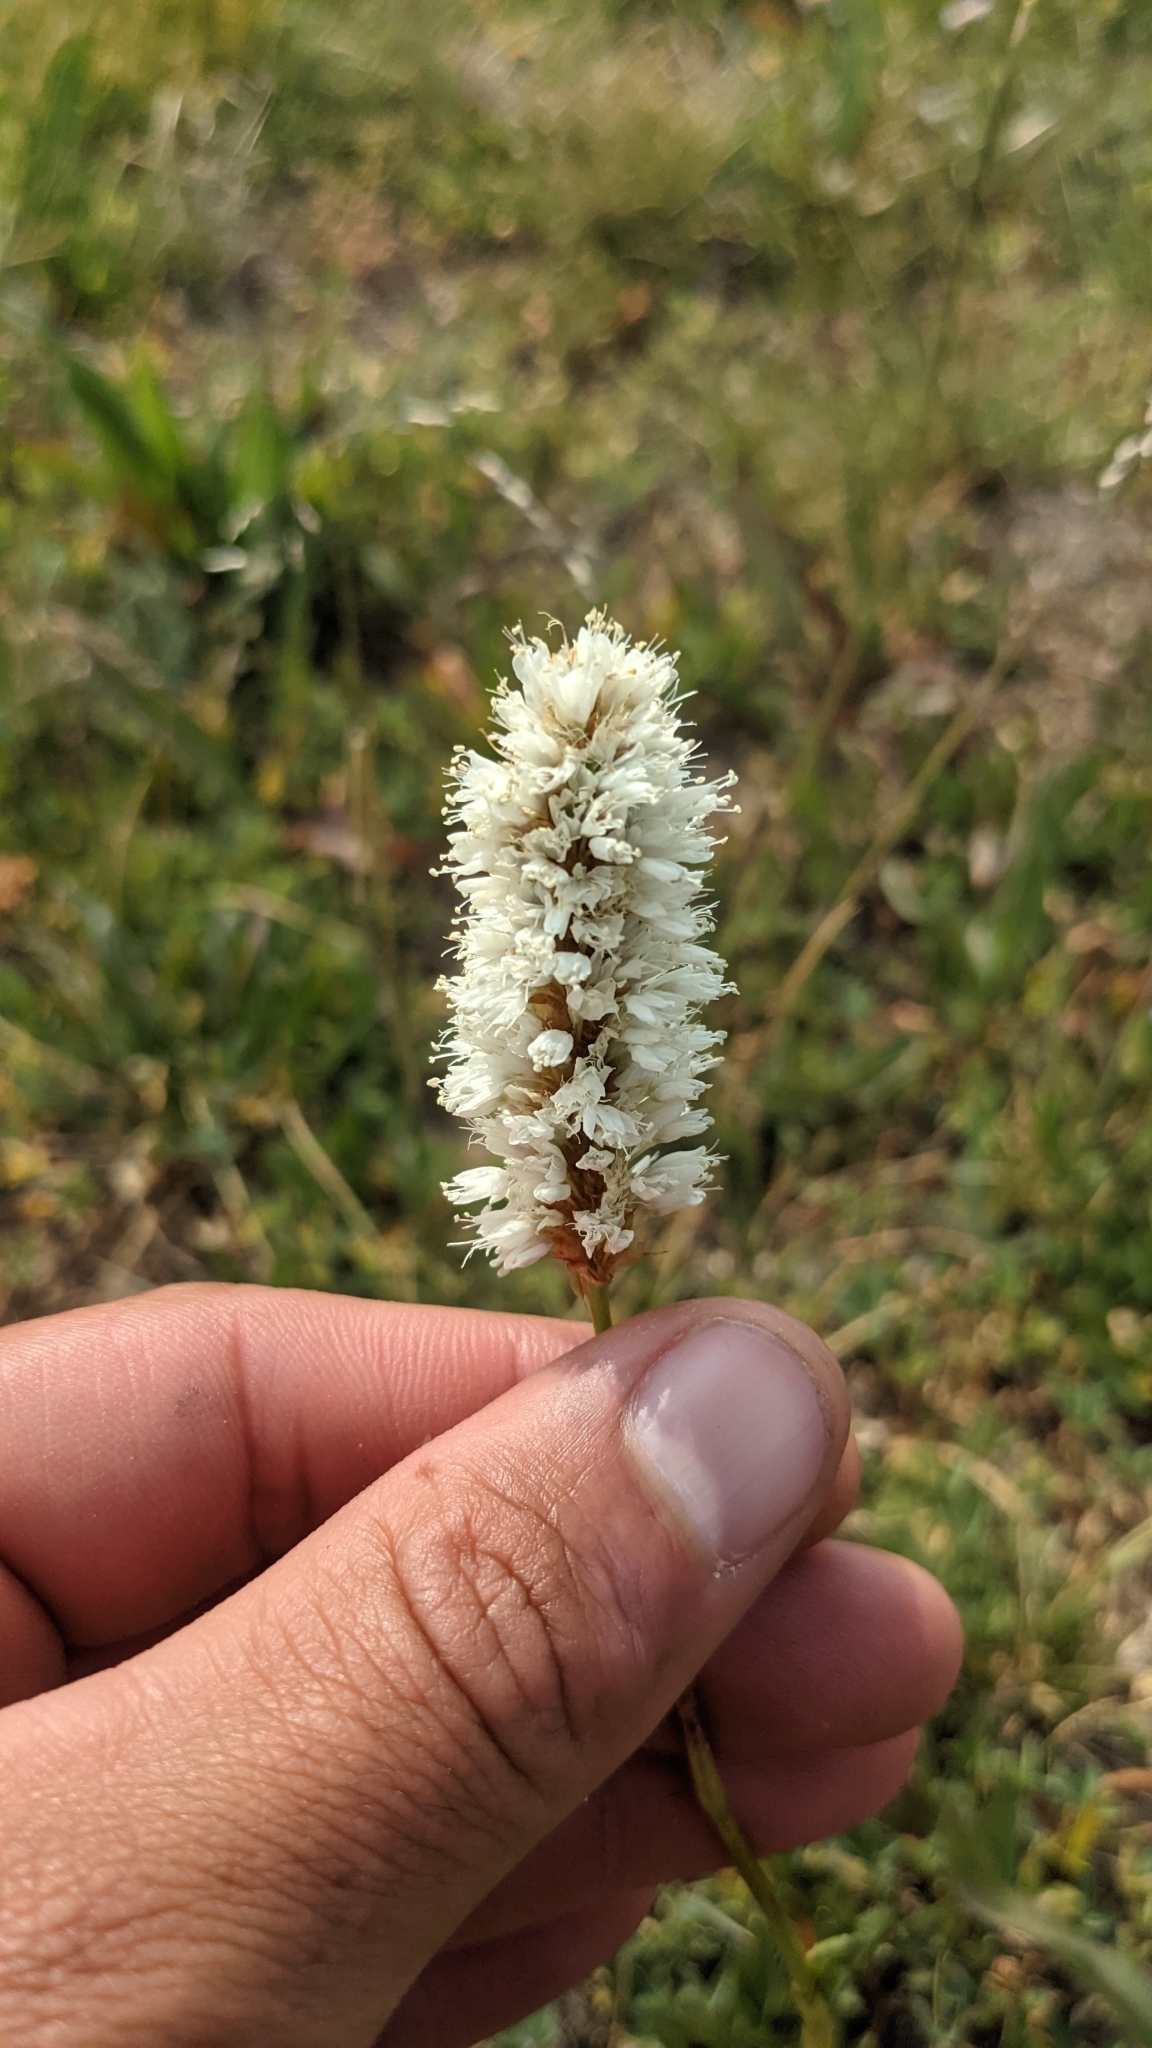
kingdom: Plantae
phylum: Tracheophyta
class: Magnoliopsida
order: Caryophyllales
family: Polygonaceae
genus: Bistorta
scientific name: Bistorta bistortoides
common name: American bistort
